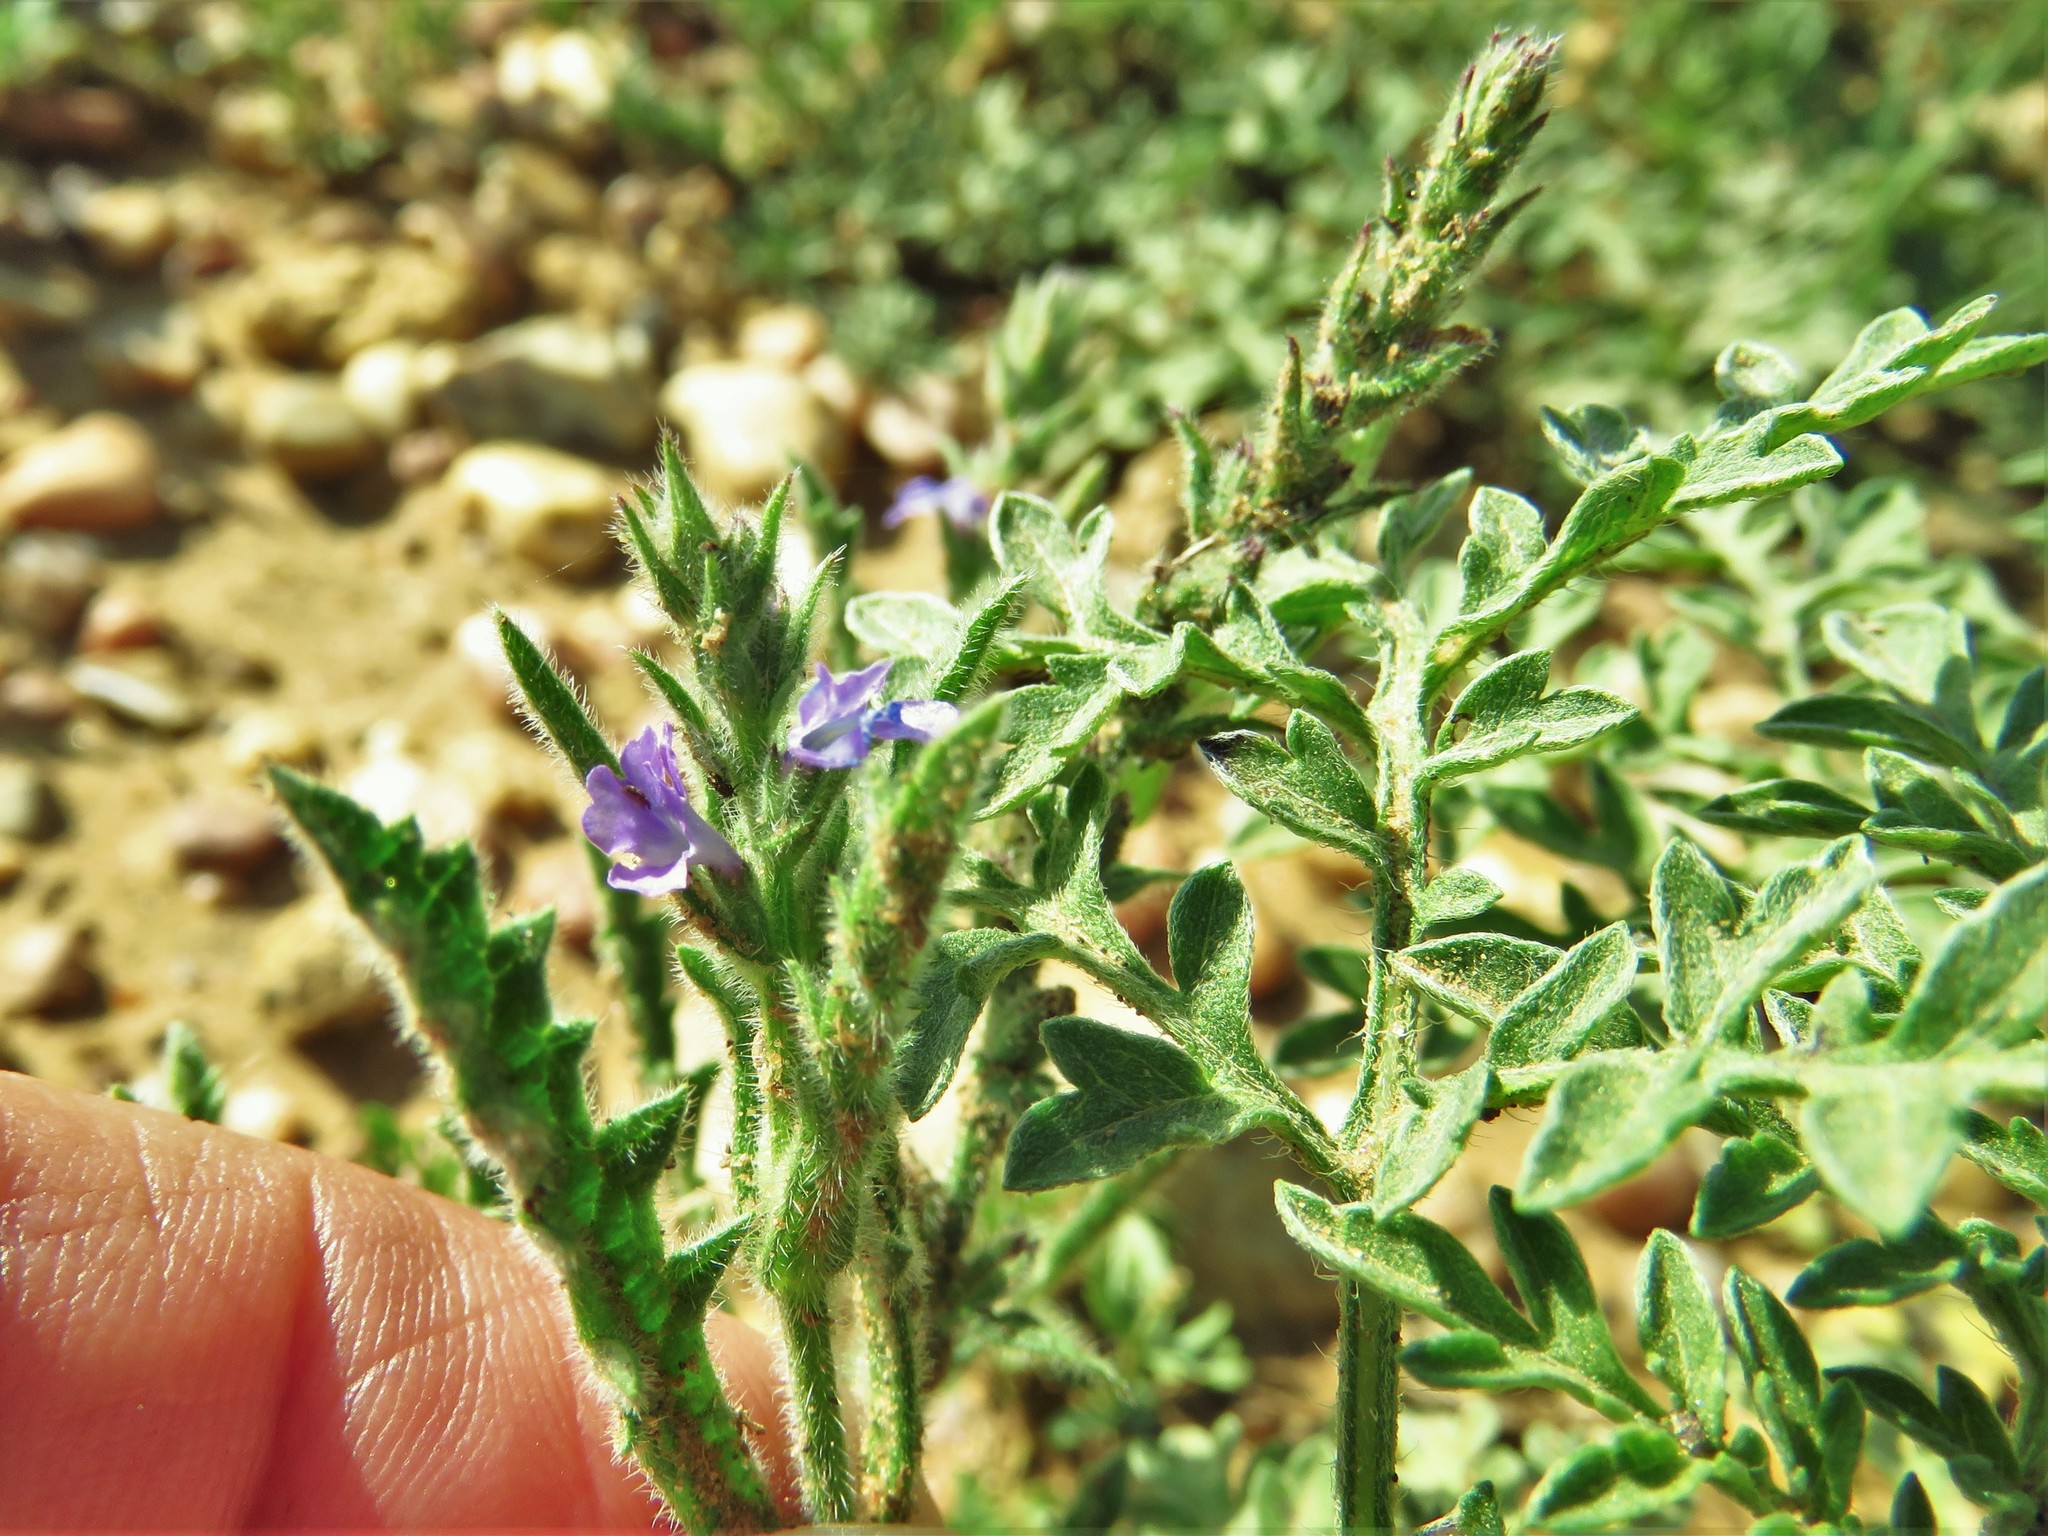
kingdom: Plantae
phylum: Tracheophyta
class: Magnoliopsida
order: Lamiales
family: Verbenaceae
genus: Verbena
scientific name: Verbena canescens
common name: Gray vervain
